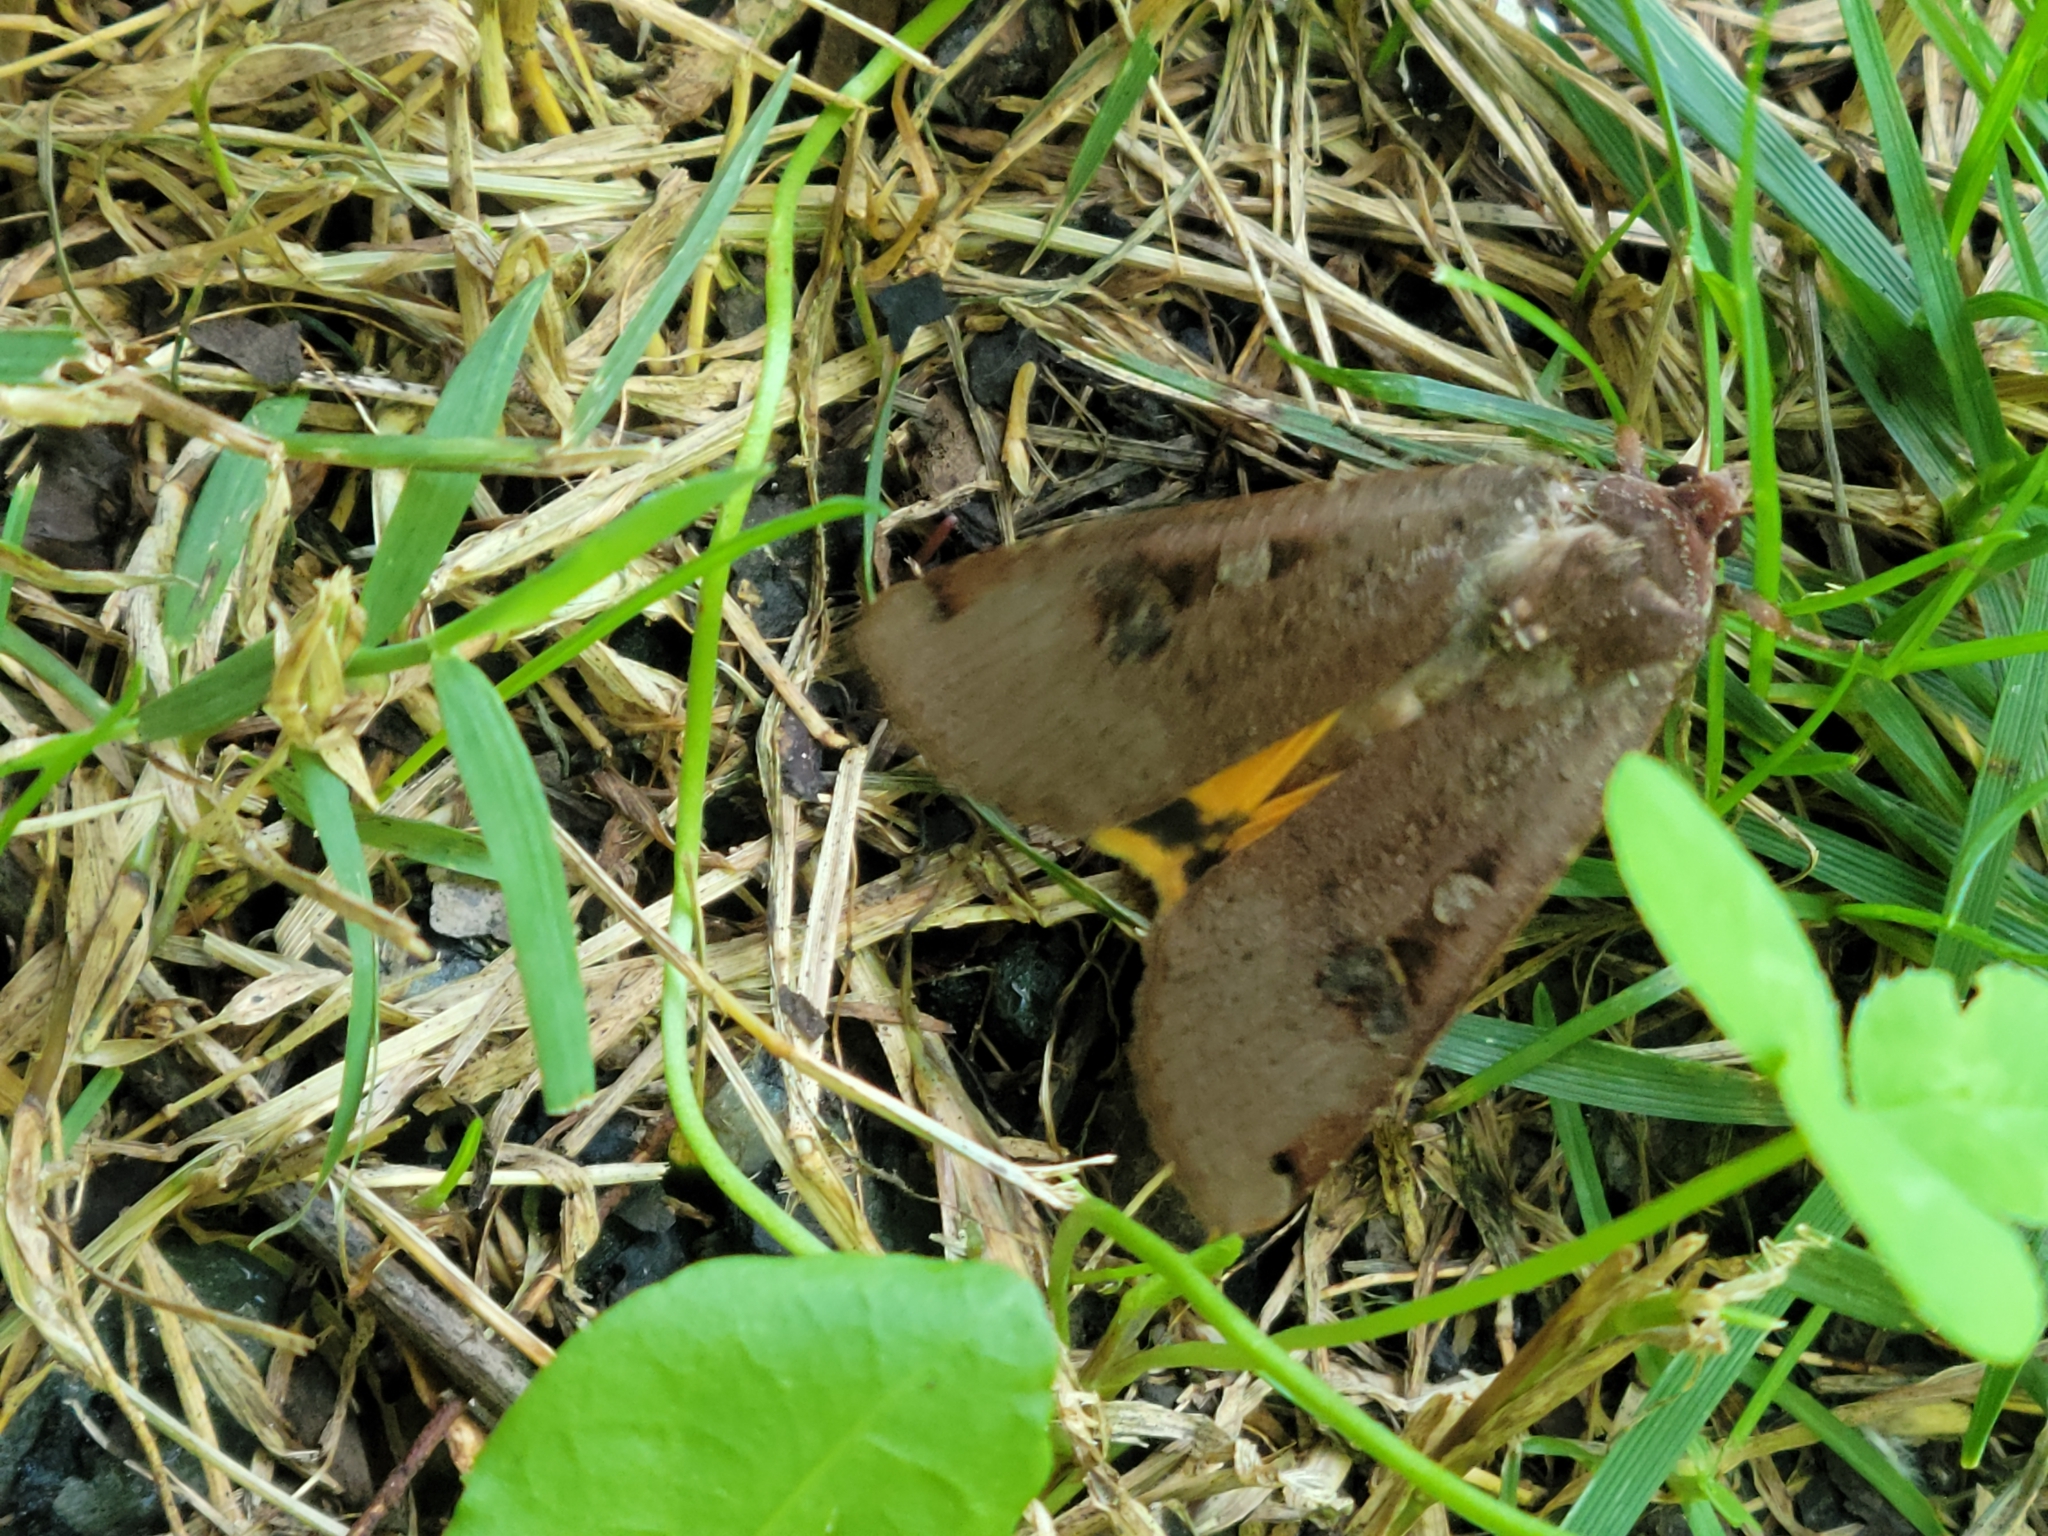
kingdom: Animalia
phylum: Arthropoda
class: Insecta
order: Lepidoptera
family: Noctuidae
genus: Noctua
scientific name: Noctua pronuba
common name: Large yellow underwing
